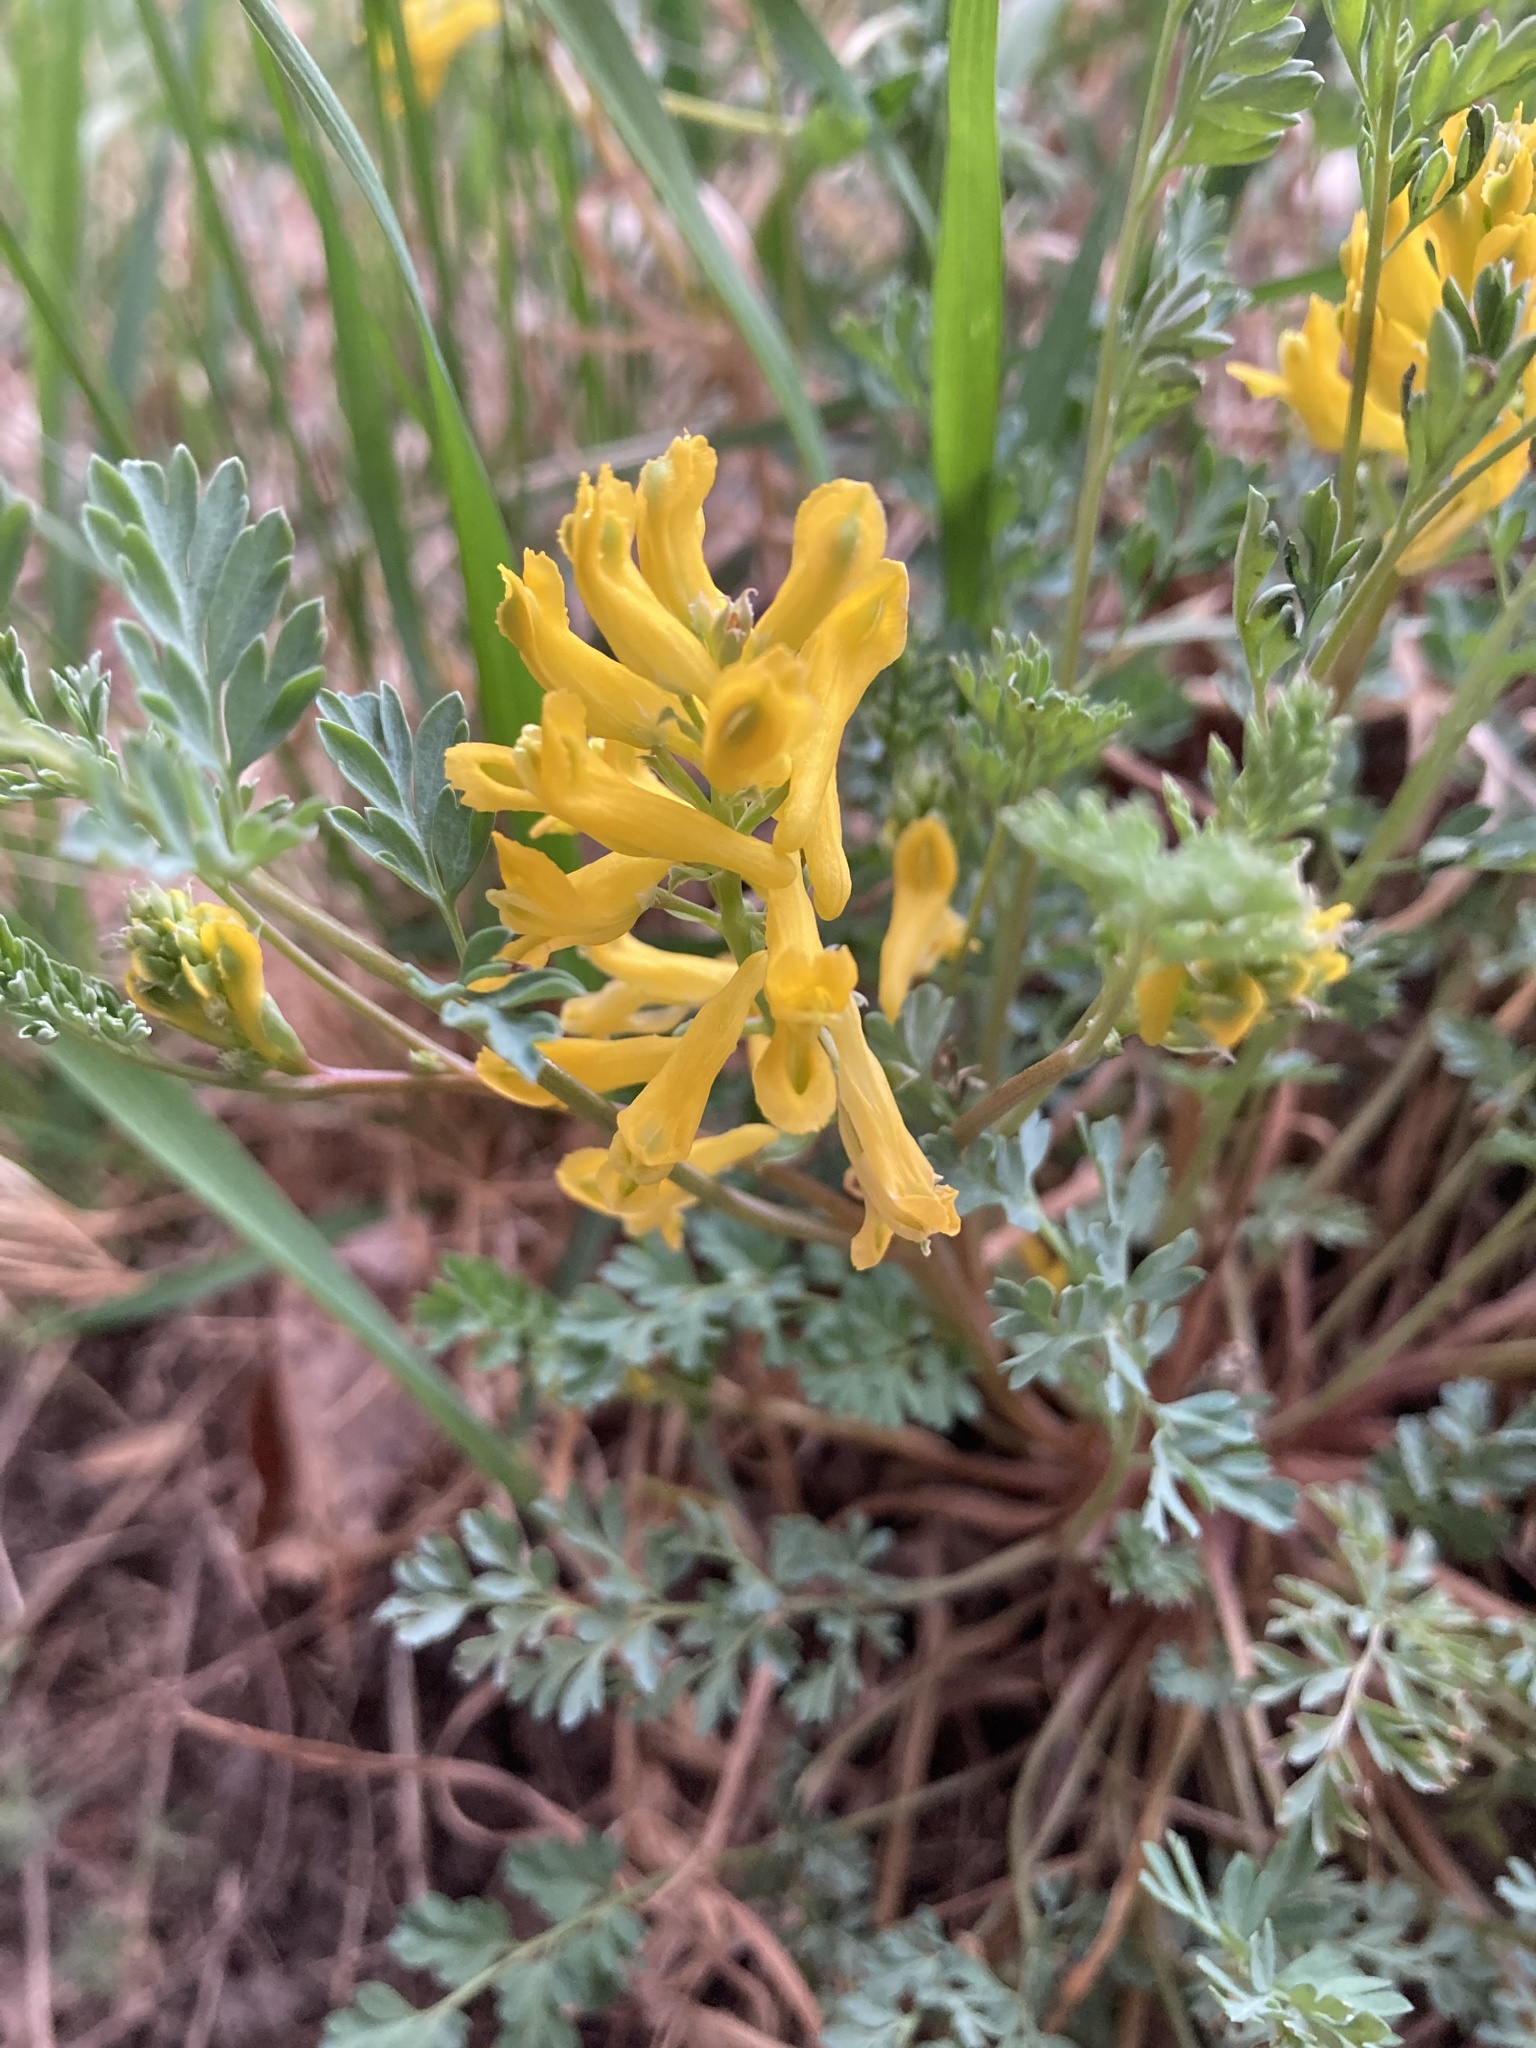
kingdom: Plantae
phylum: Tracheophyta
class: Magnoliopsida
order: Ranunculales
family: Papaveraceae
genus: Corydalis
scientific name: Corydalis aurea
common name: Golden corydalis
